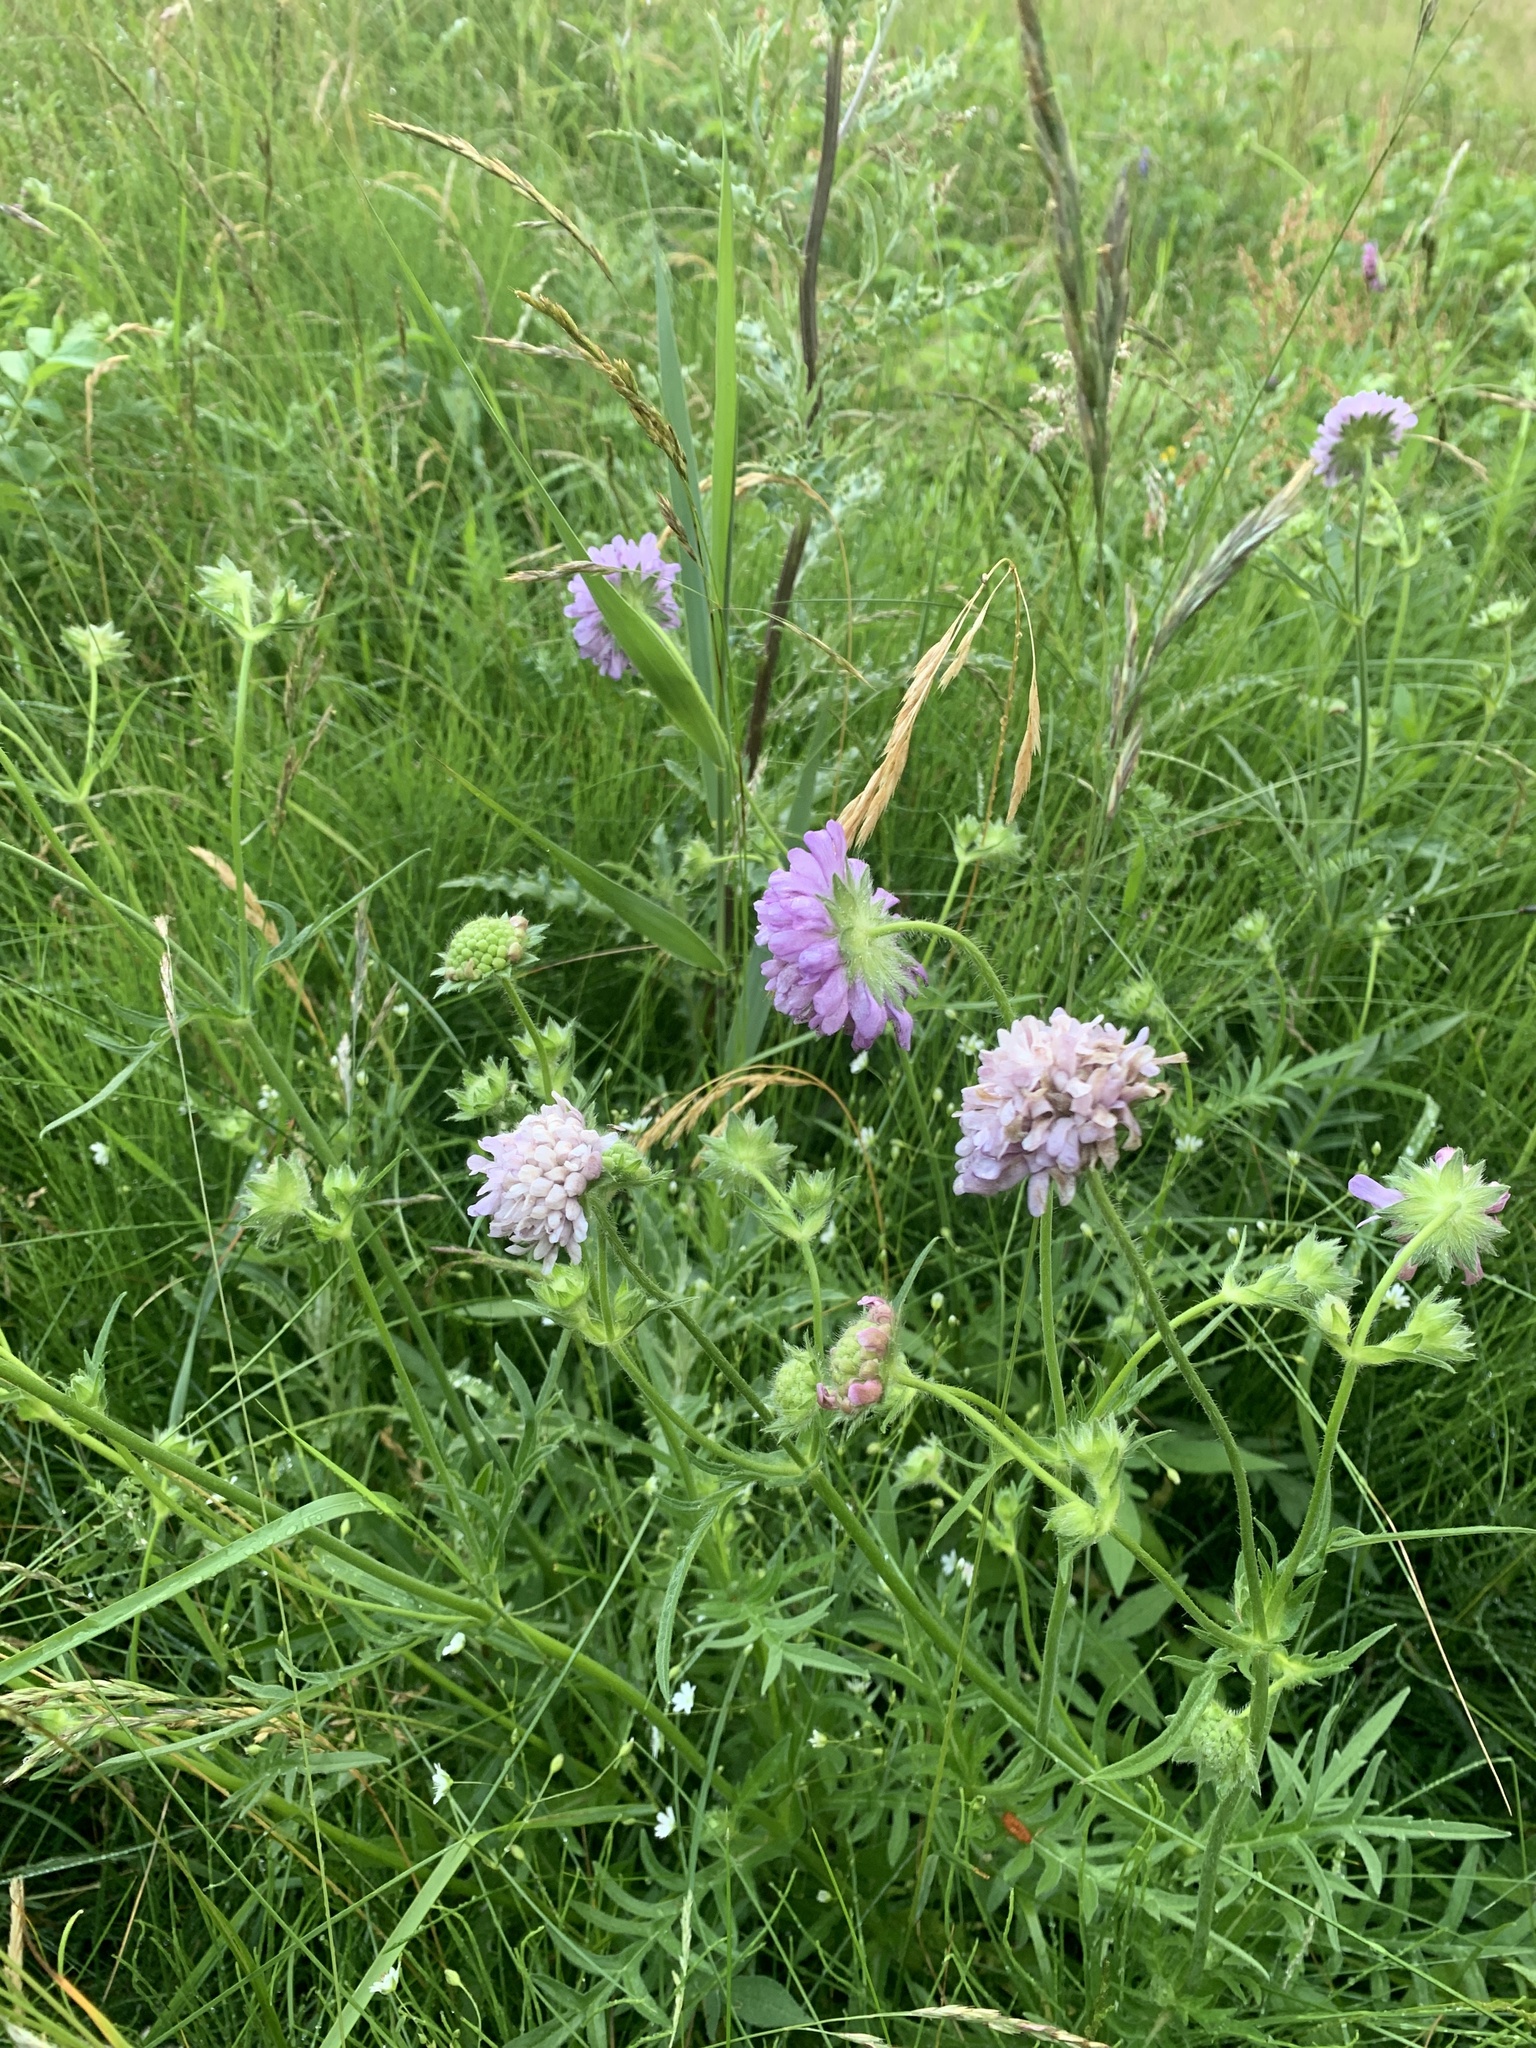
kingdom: Plantae
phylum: Tracheophyta
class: Magnoliopsida
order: Dipsacales
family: Caprifoliaceae
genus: Knautia
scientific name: Knautia arvensis
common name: Field scabiosa
